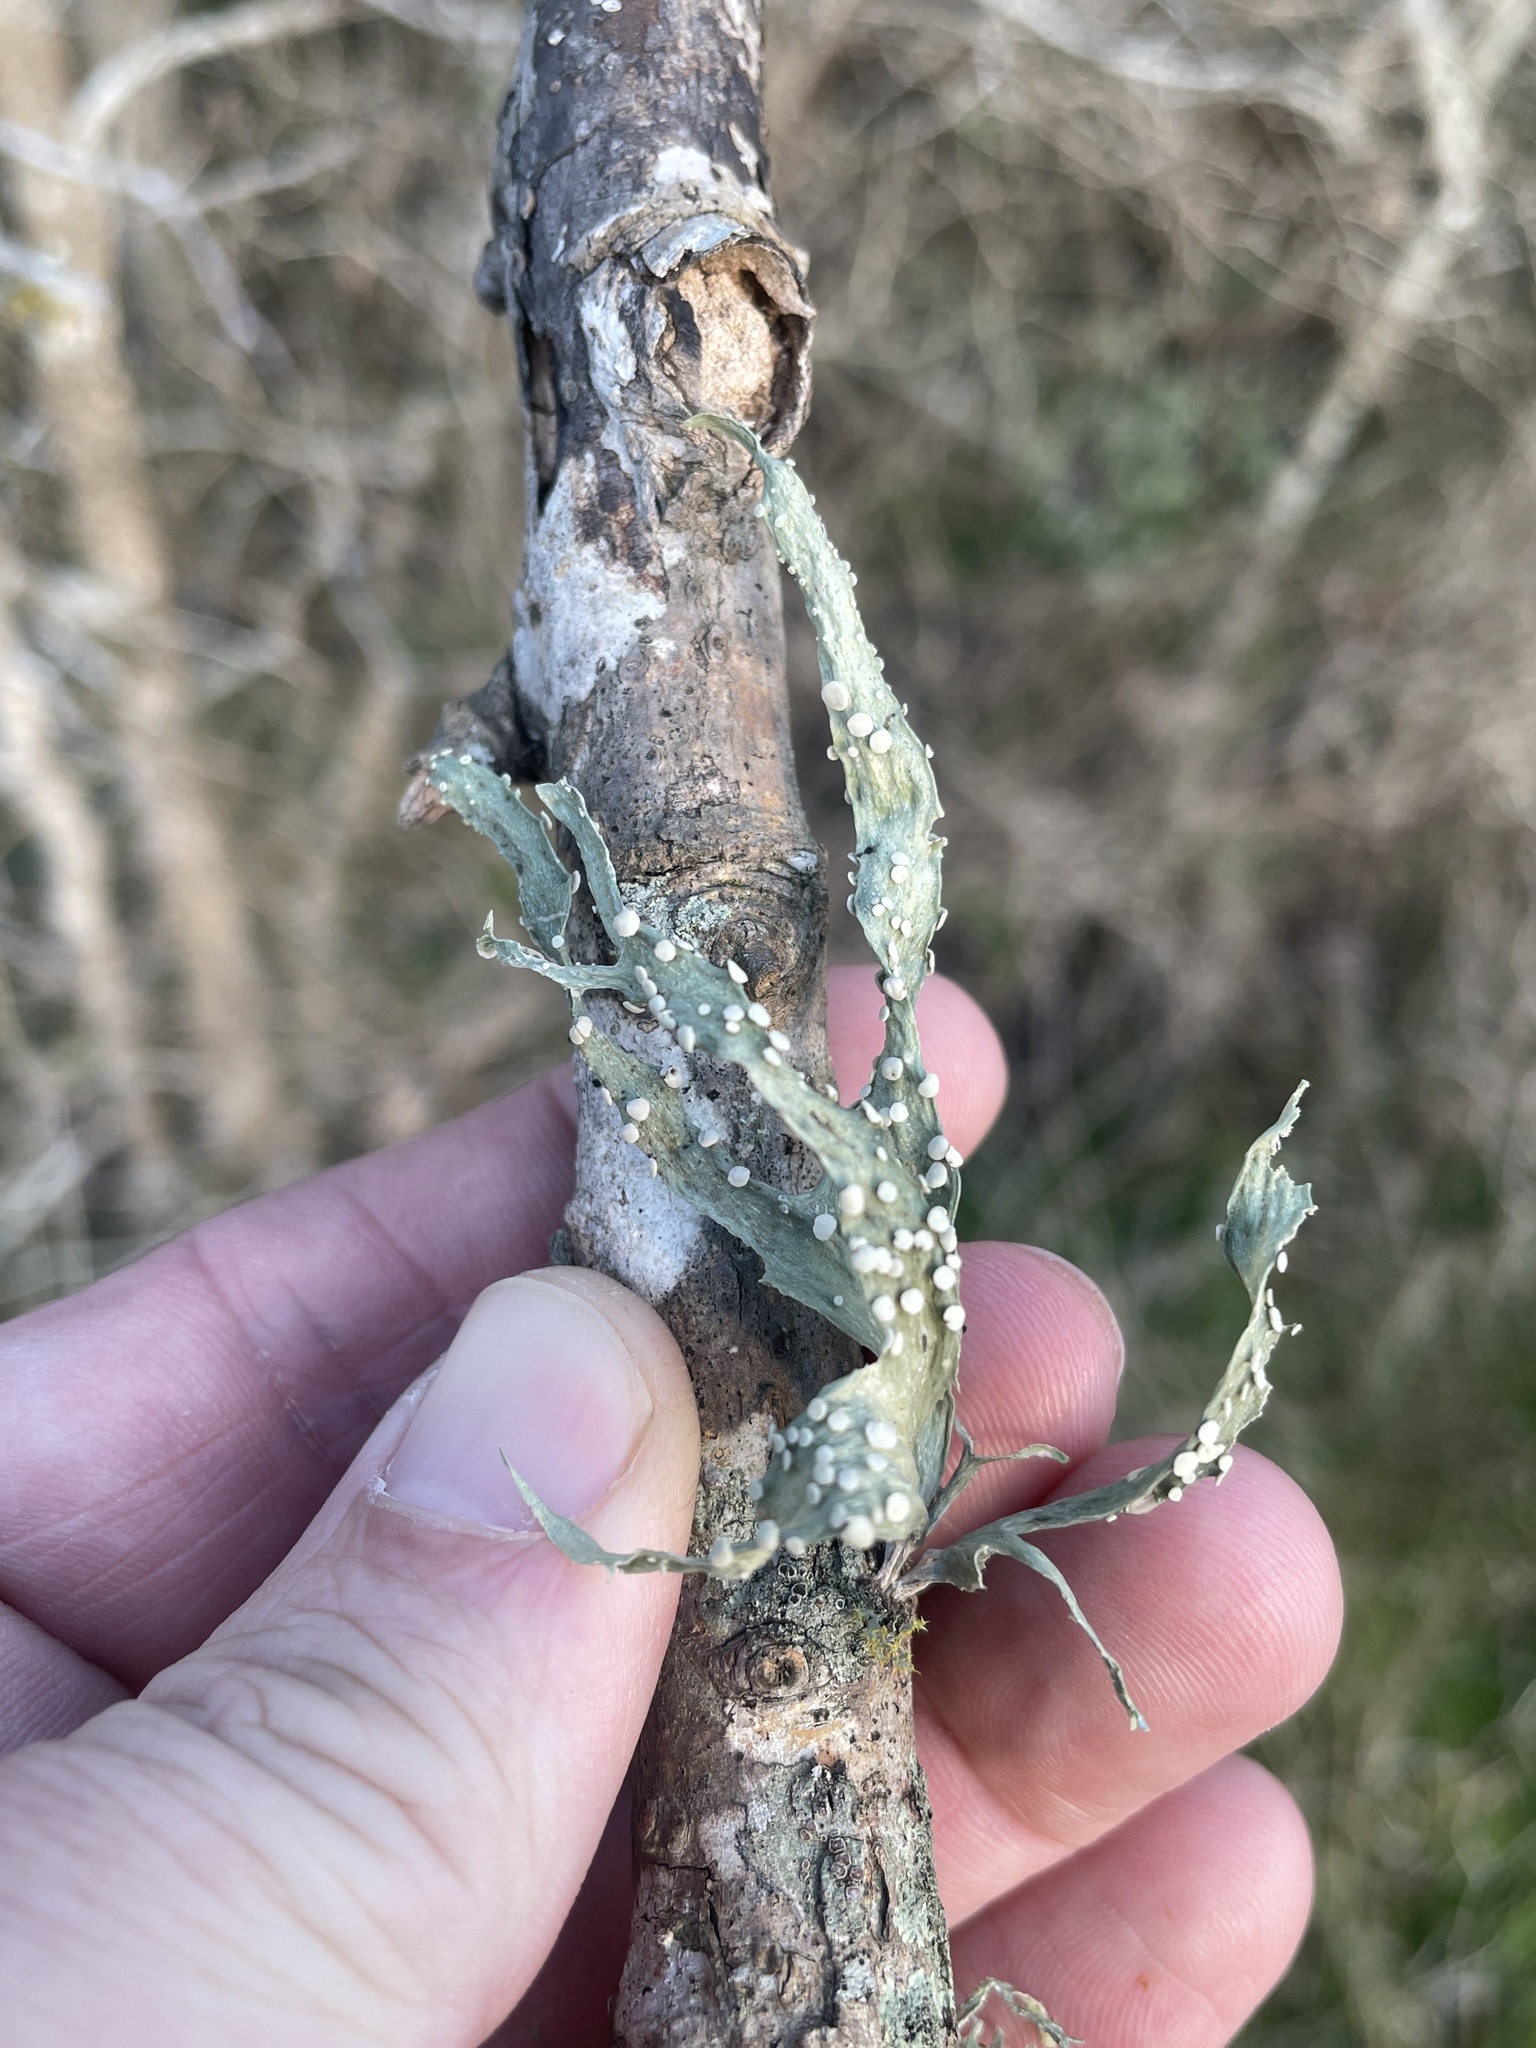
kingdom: Fungi
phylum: Ascomycota
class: Lecanoromycetes
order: Lecanorales
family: Ramalinaceae
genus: Ramalina
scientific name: Ramalina celastri
